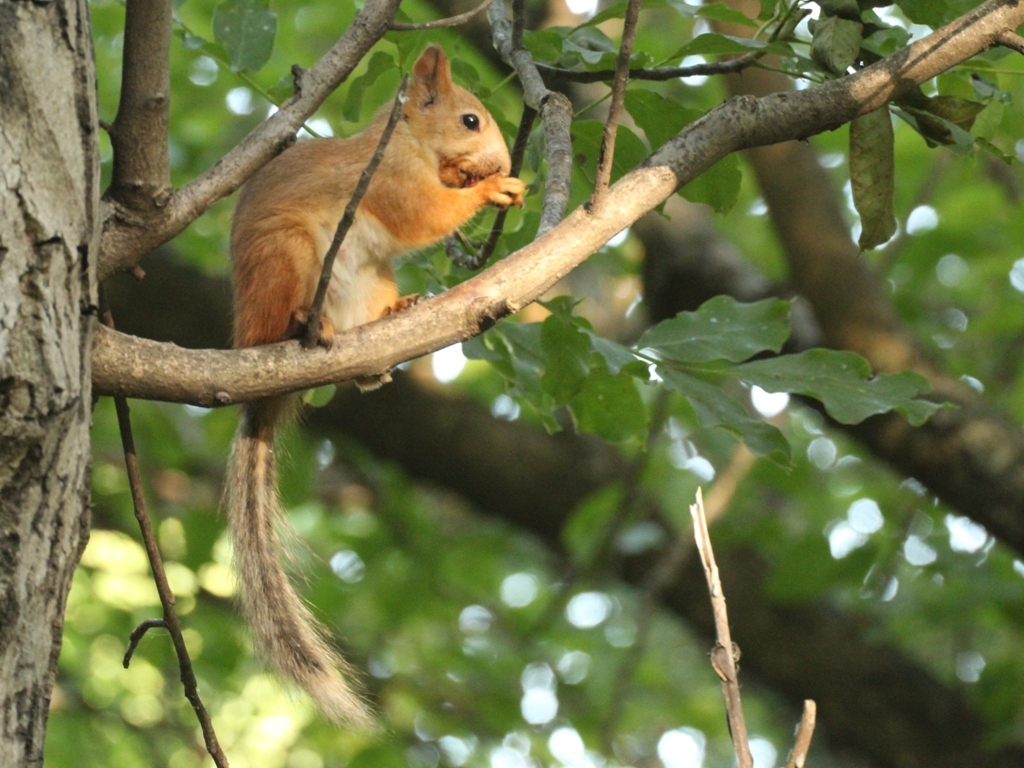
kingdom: Animalia
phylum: Chordata
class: Mammalia
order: Rodentia
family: Sciuridae
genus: Sciurus
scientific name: Sciurus vulgaris
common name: Eurasian red squirrel
